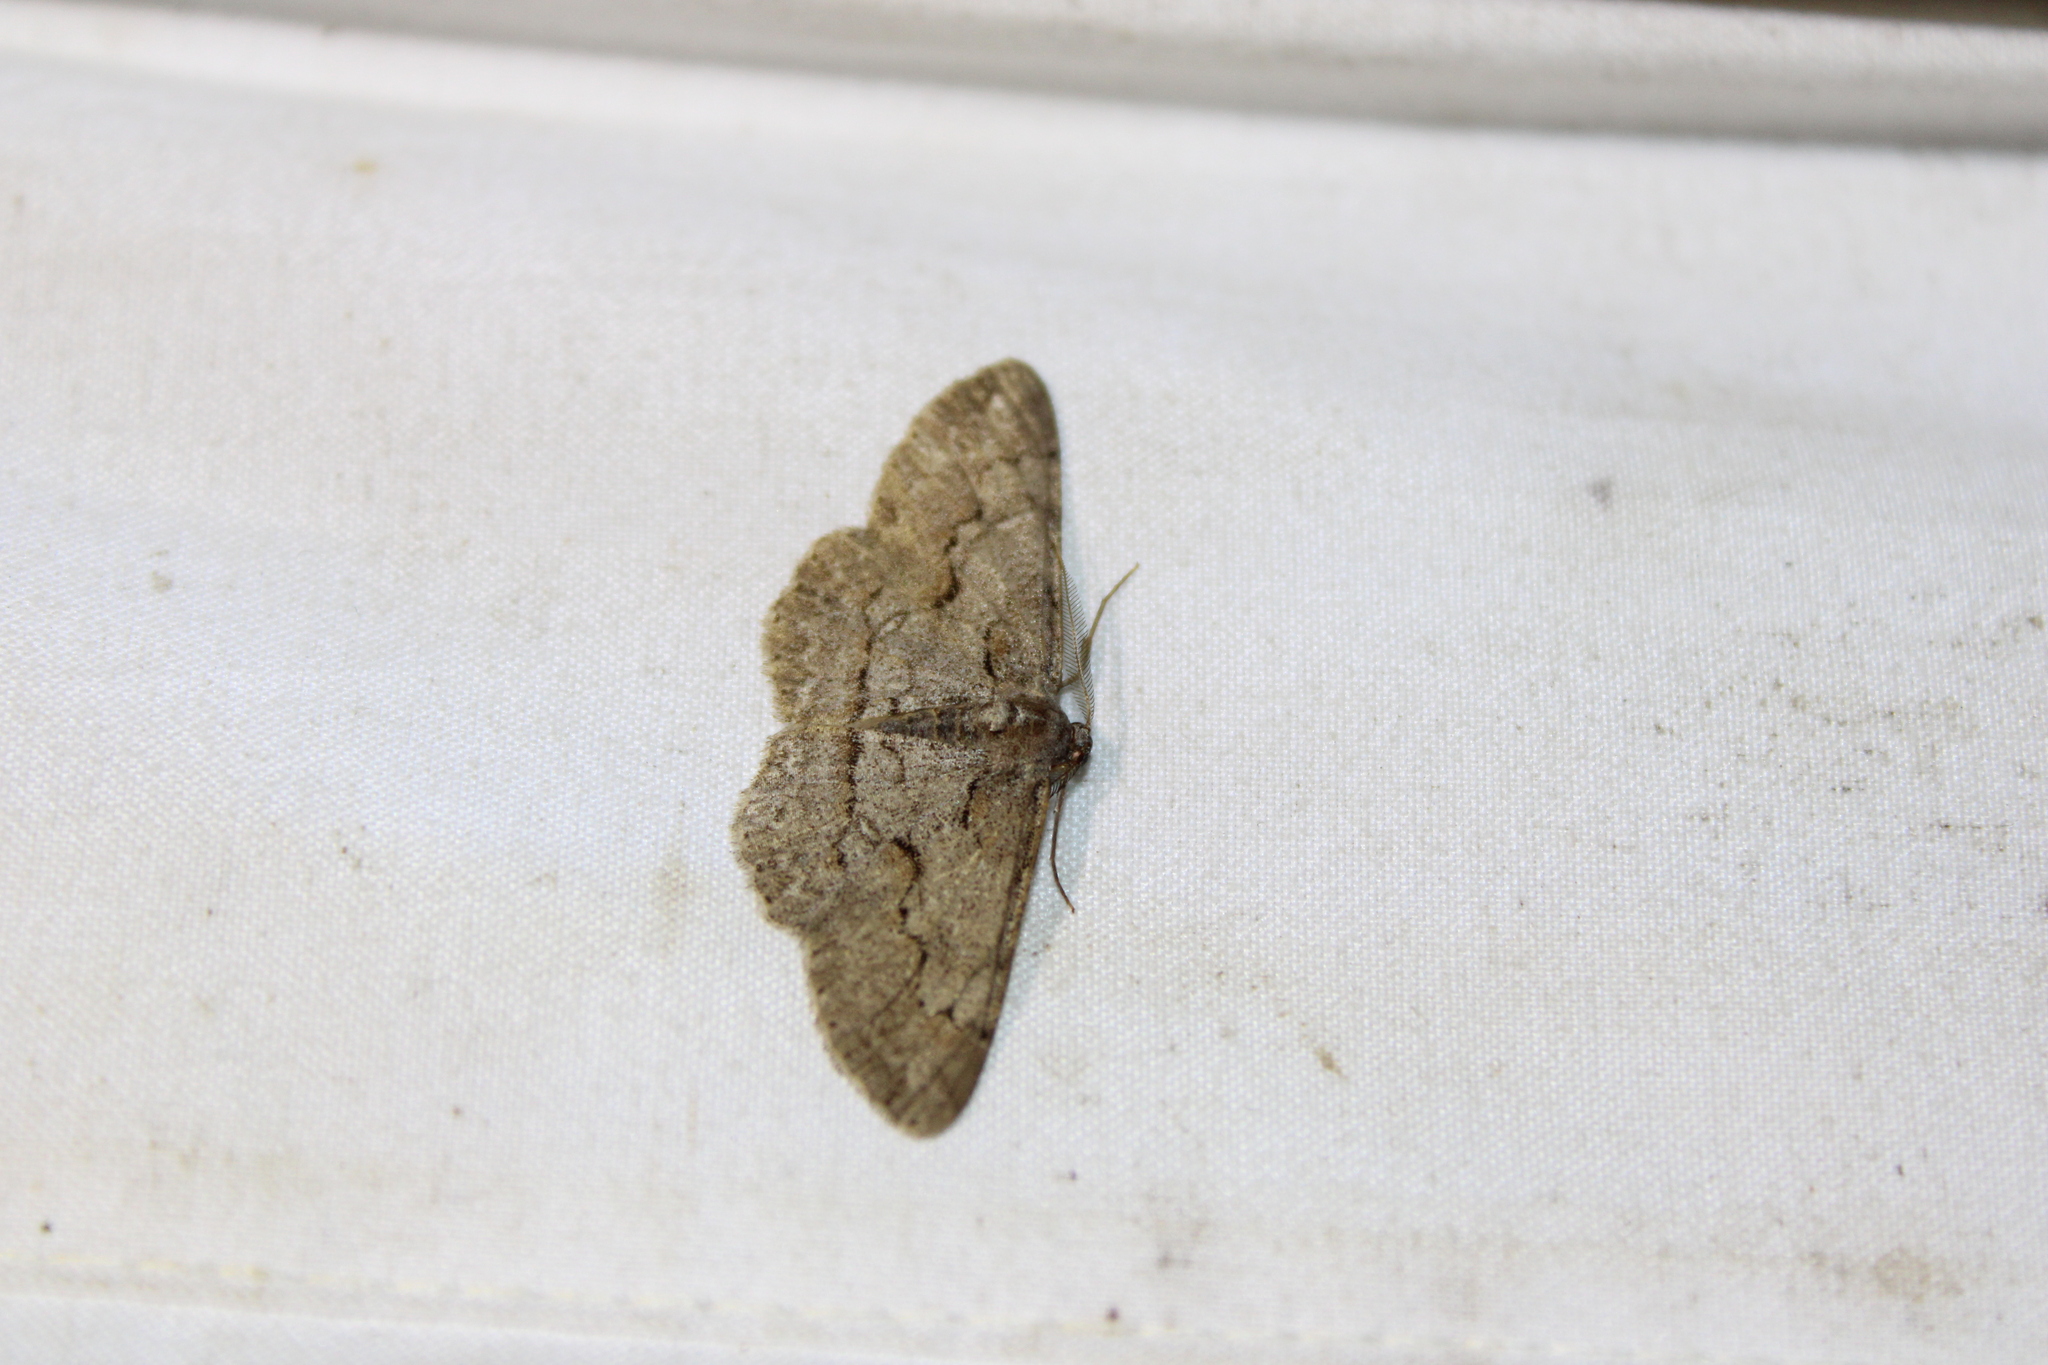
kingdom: Animalia
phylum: Arthropoda
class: Insecta
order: Lepidoptera
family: Geometridae
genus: Iridopsis
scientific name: Iridopsis vellivolata
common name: Large purplish gray
